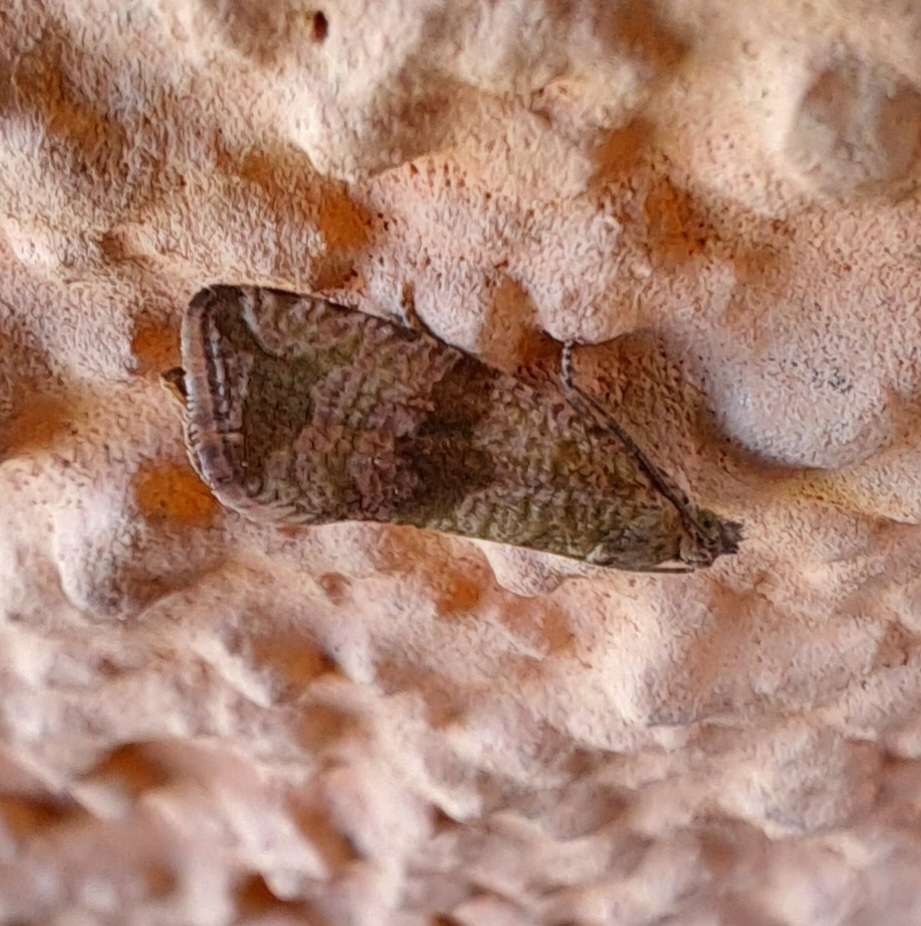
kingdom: Animalia
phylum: Arthropoda
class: Insecta
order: Lepidoptera
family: Tortricidae
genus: Celypha
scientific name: Celypha striana
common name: Barred marble
